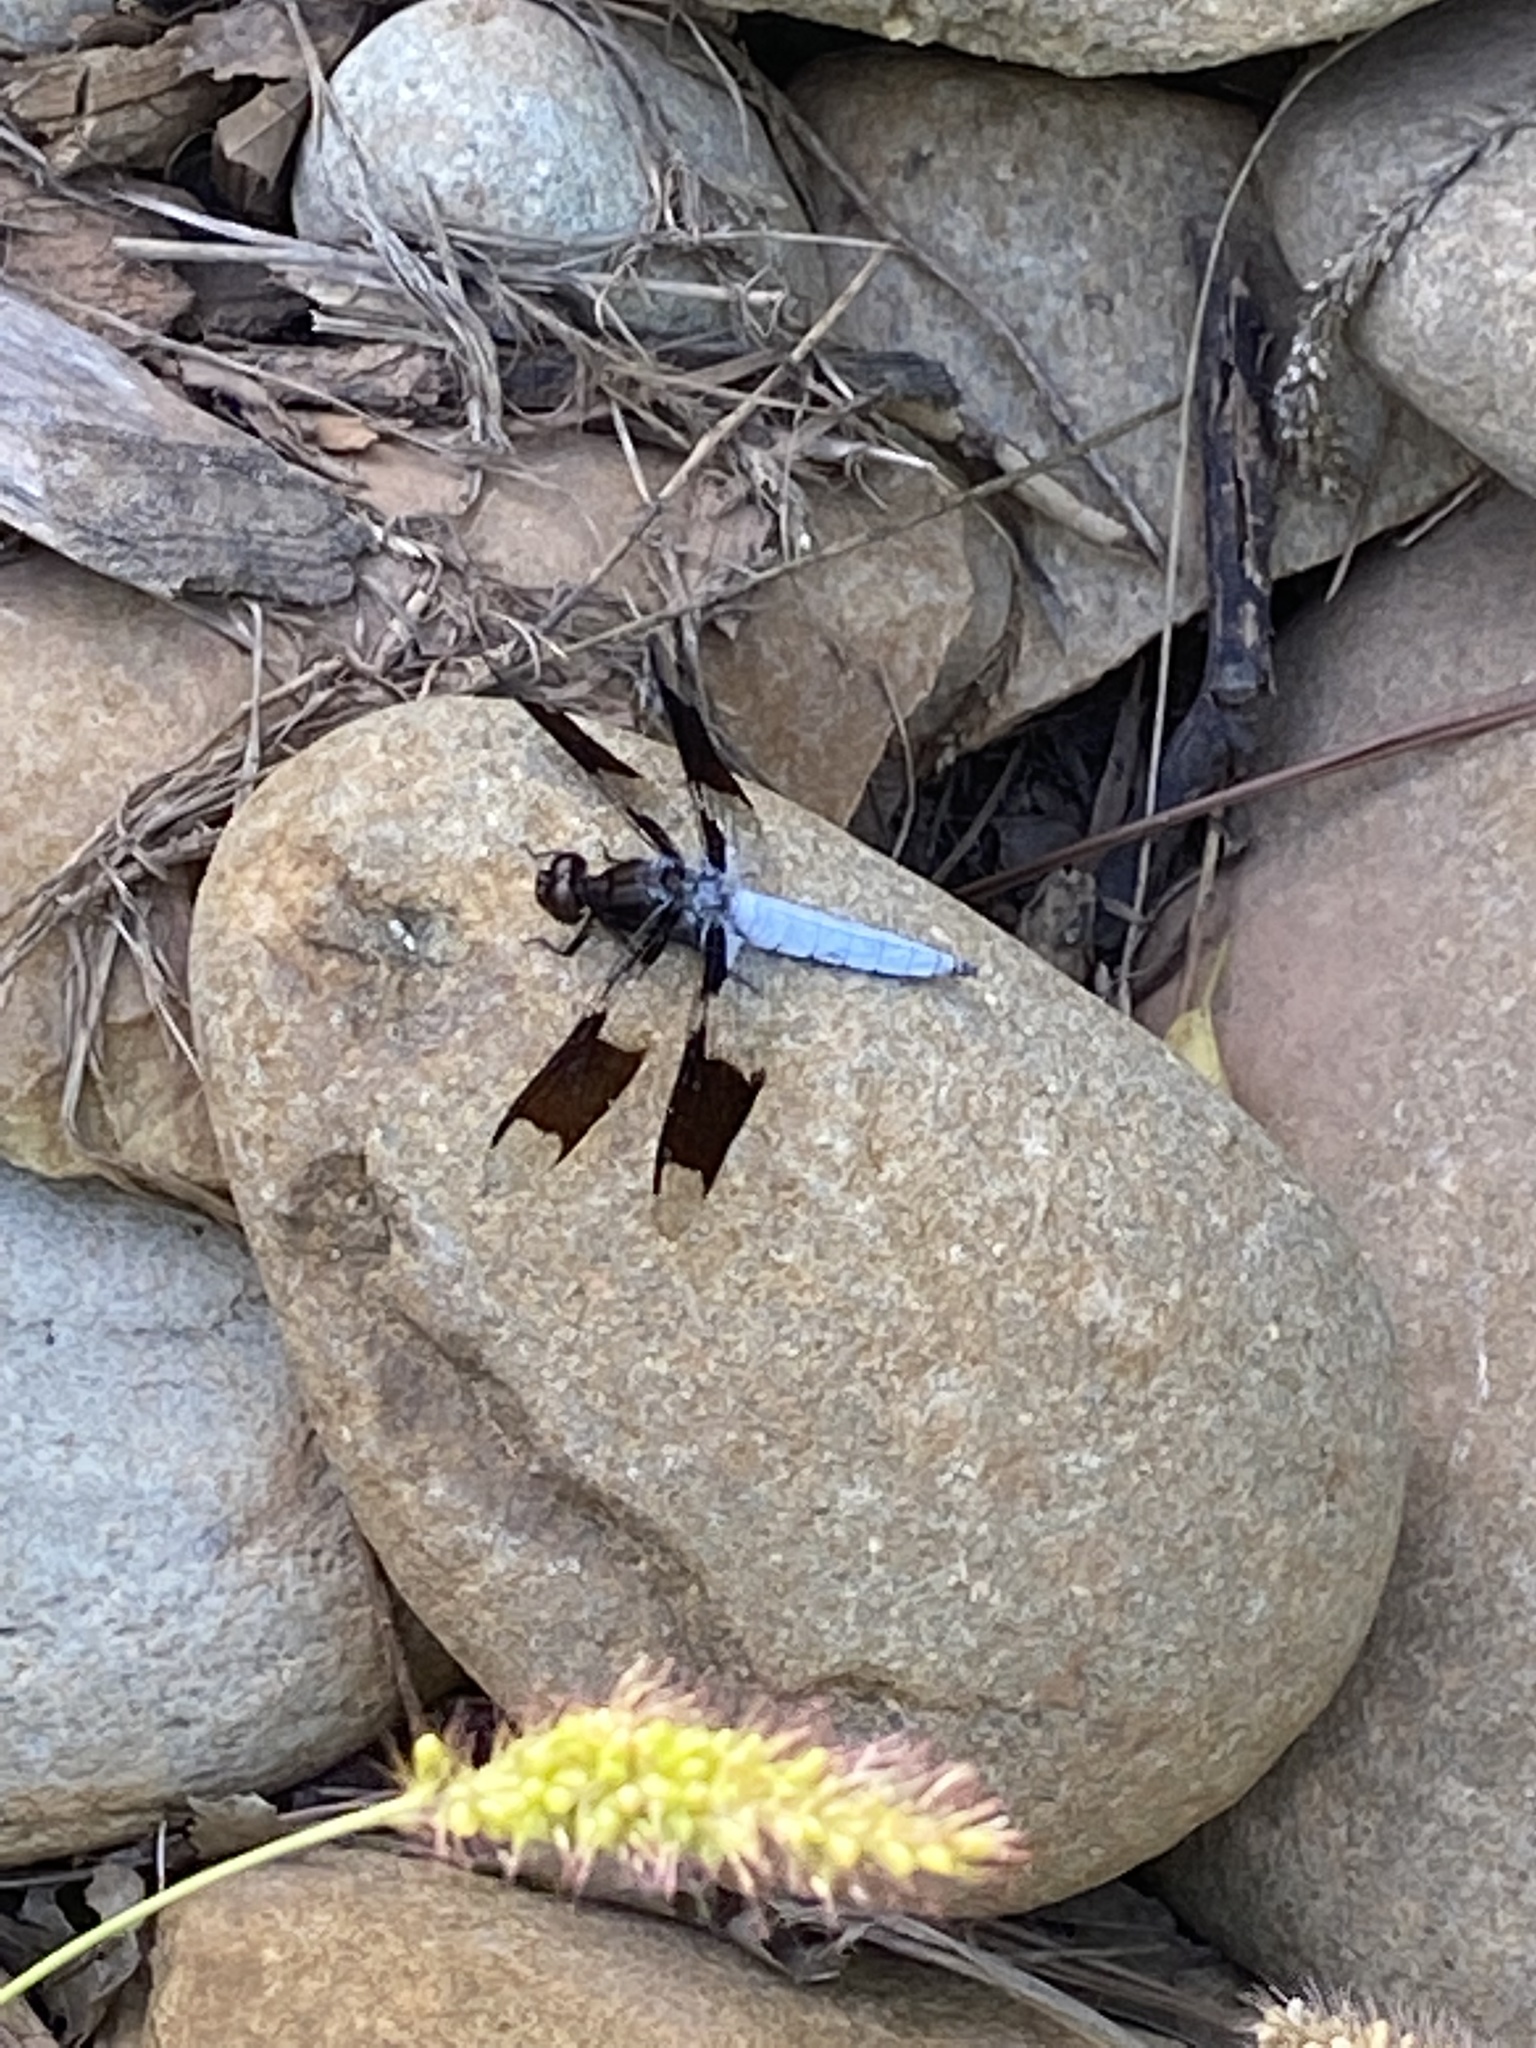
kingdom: Animalia
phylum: Arthropoda
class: Insecta
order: Odonata
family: Libellulidae
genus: Plathemis
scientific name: Plathemis lydia
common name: Common whitetail
